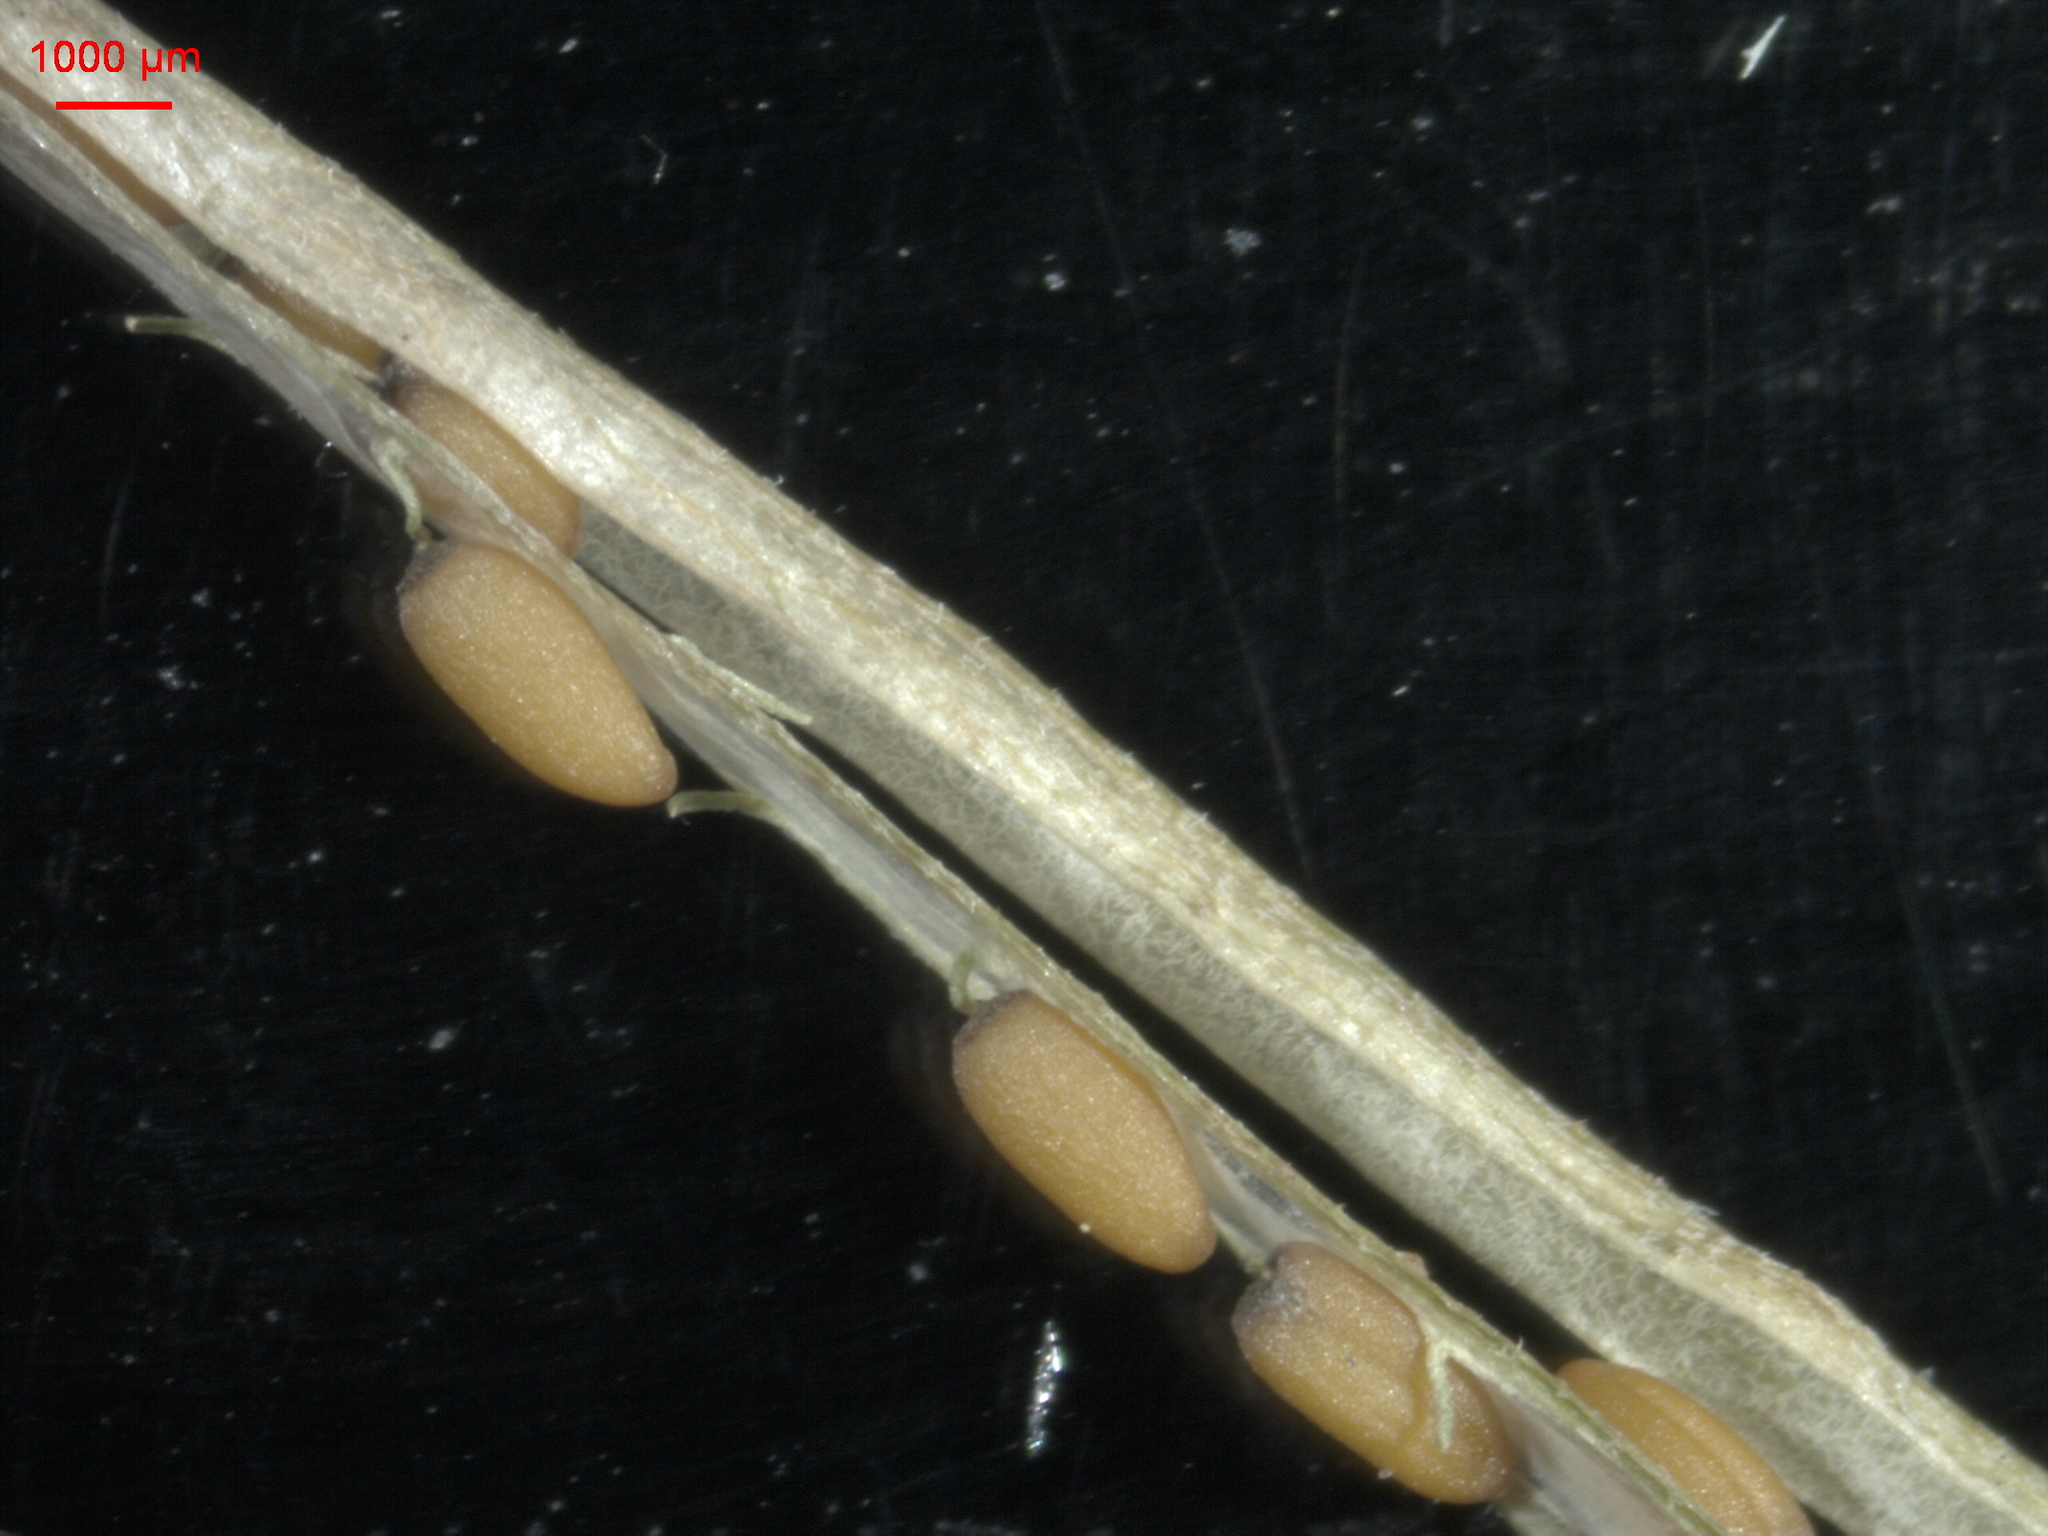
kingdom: Plantae
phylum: Tracheophyta
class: Magnoliopsida
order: Brassicales
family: Brassicaceae
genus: Erysimum
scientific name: Erysimum cheiranthoides
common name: Treacle mustard
